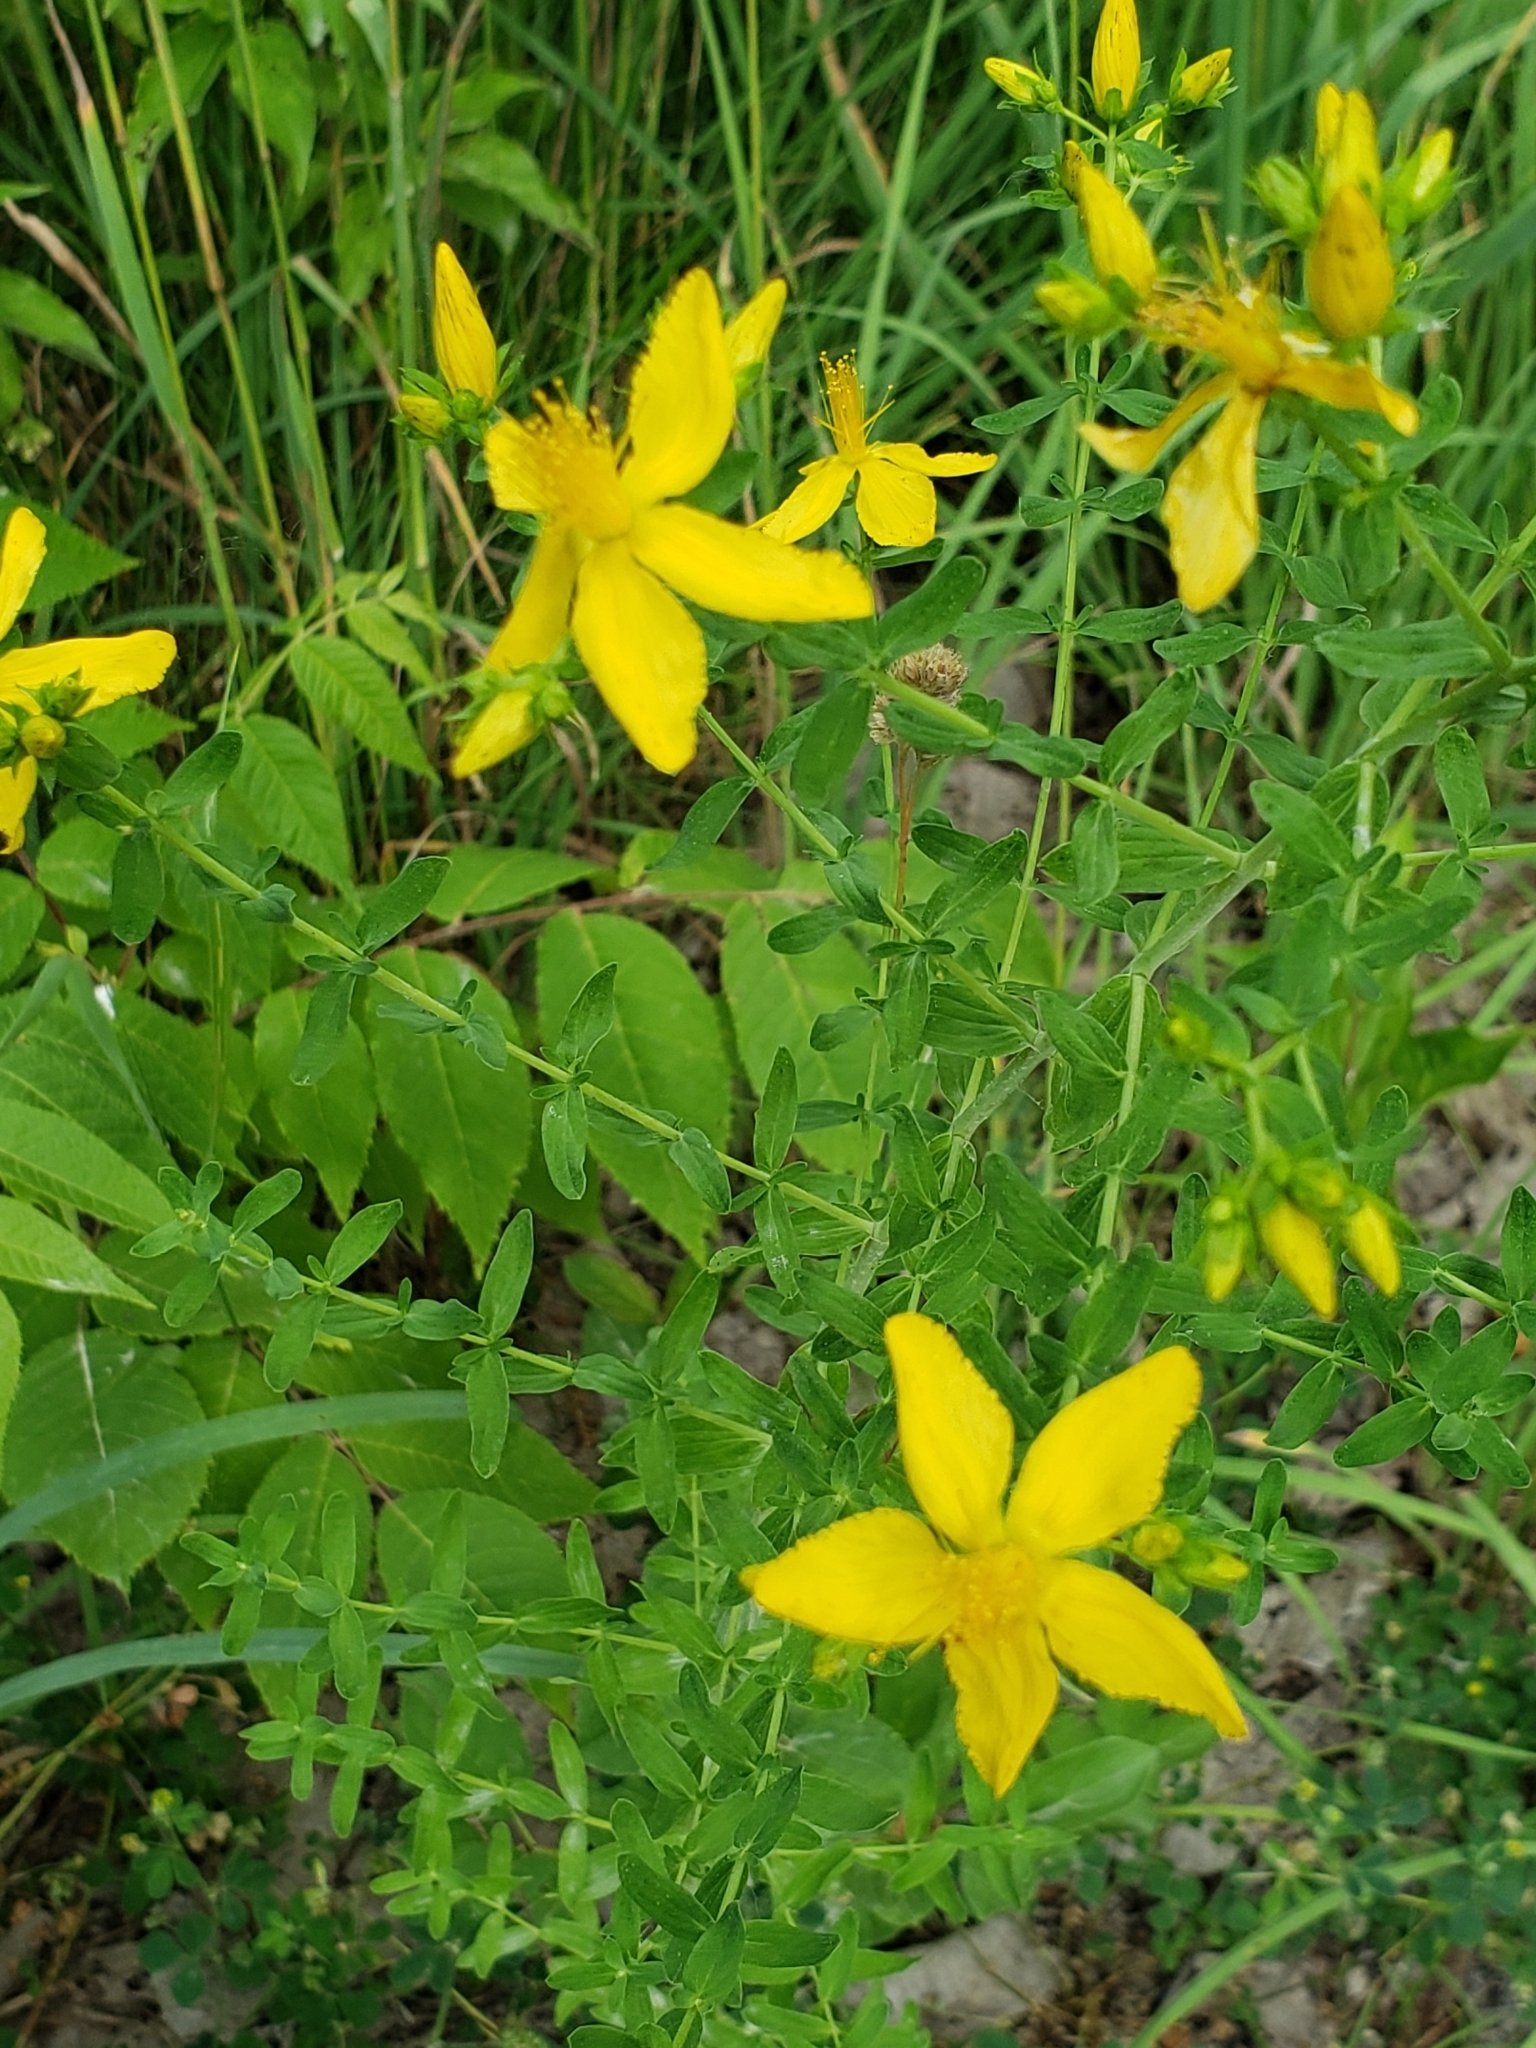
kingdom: Plantae
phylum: Tracheophyta
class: Magnoliopsida
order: Malpighiales
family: Hypericaceae
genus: Hypericum
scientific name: Hypericum perforatum
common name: Common st. johnswort
